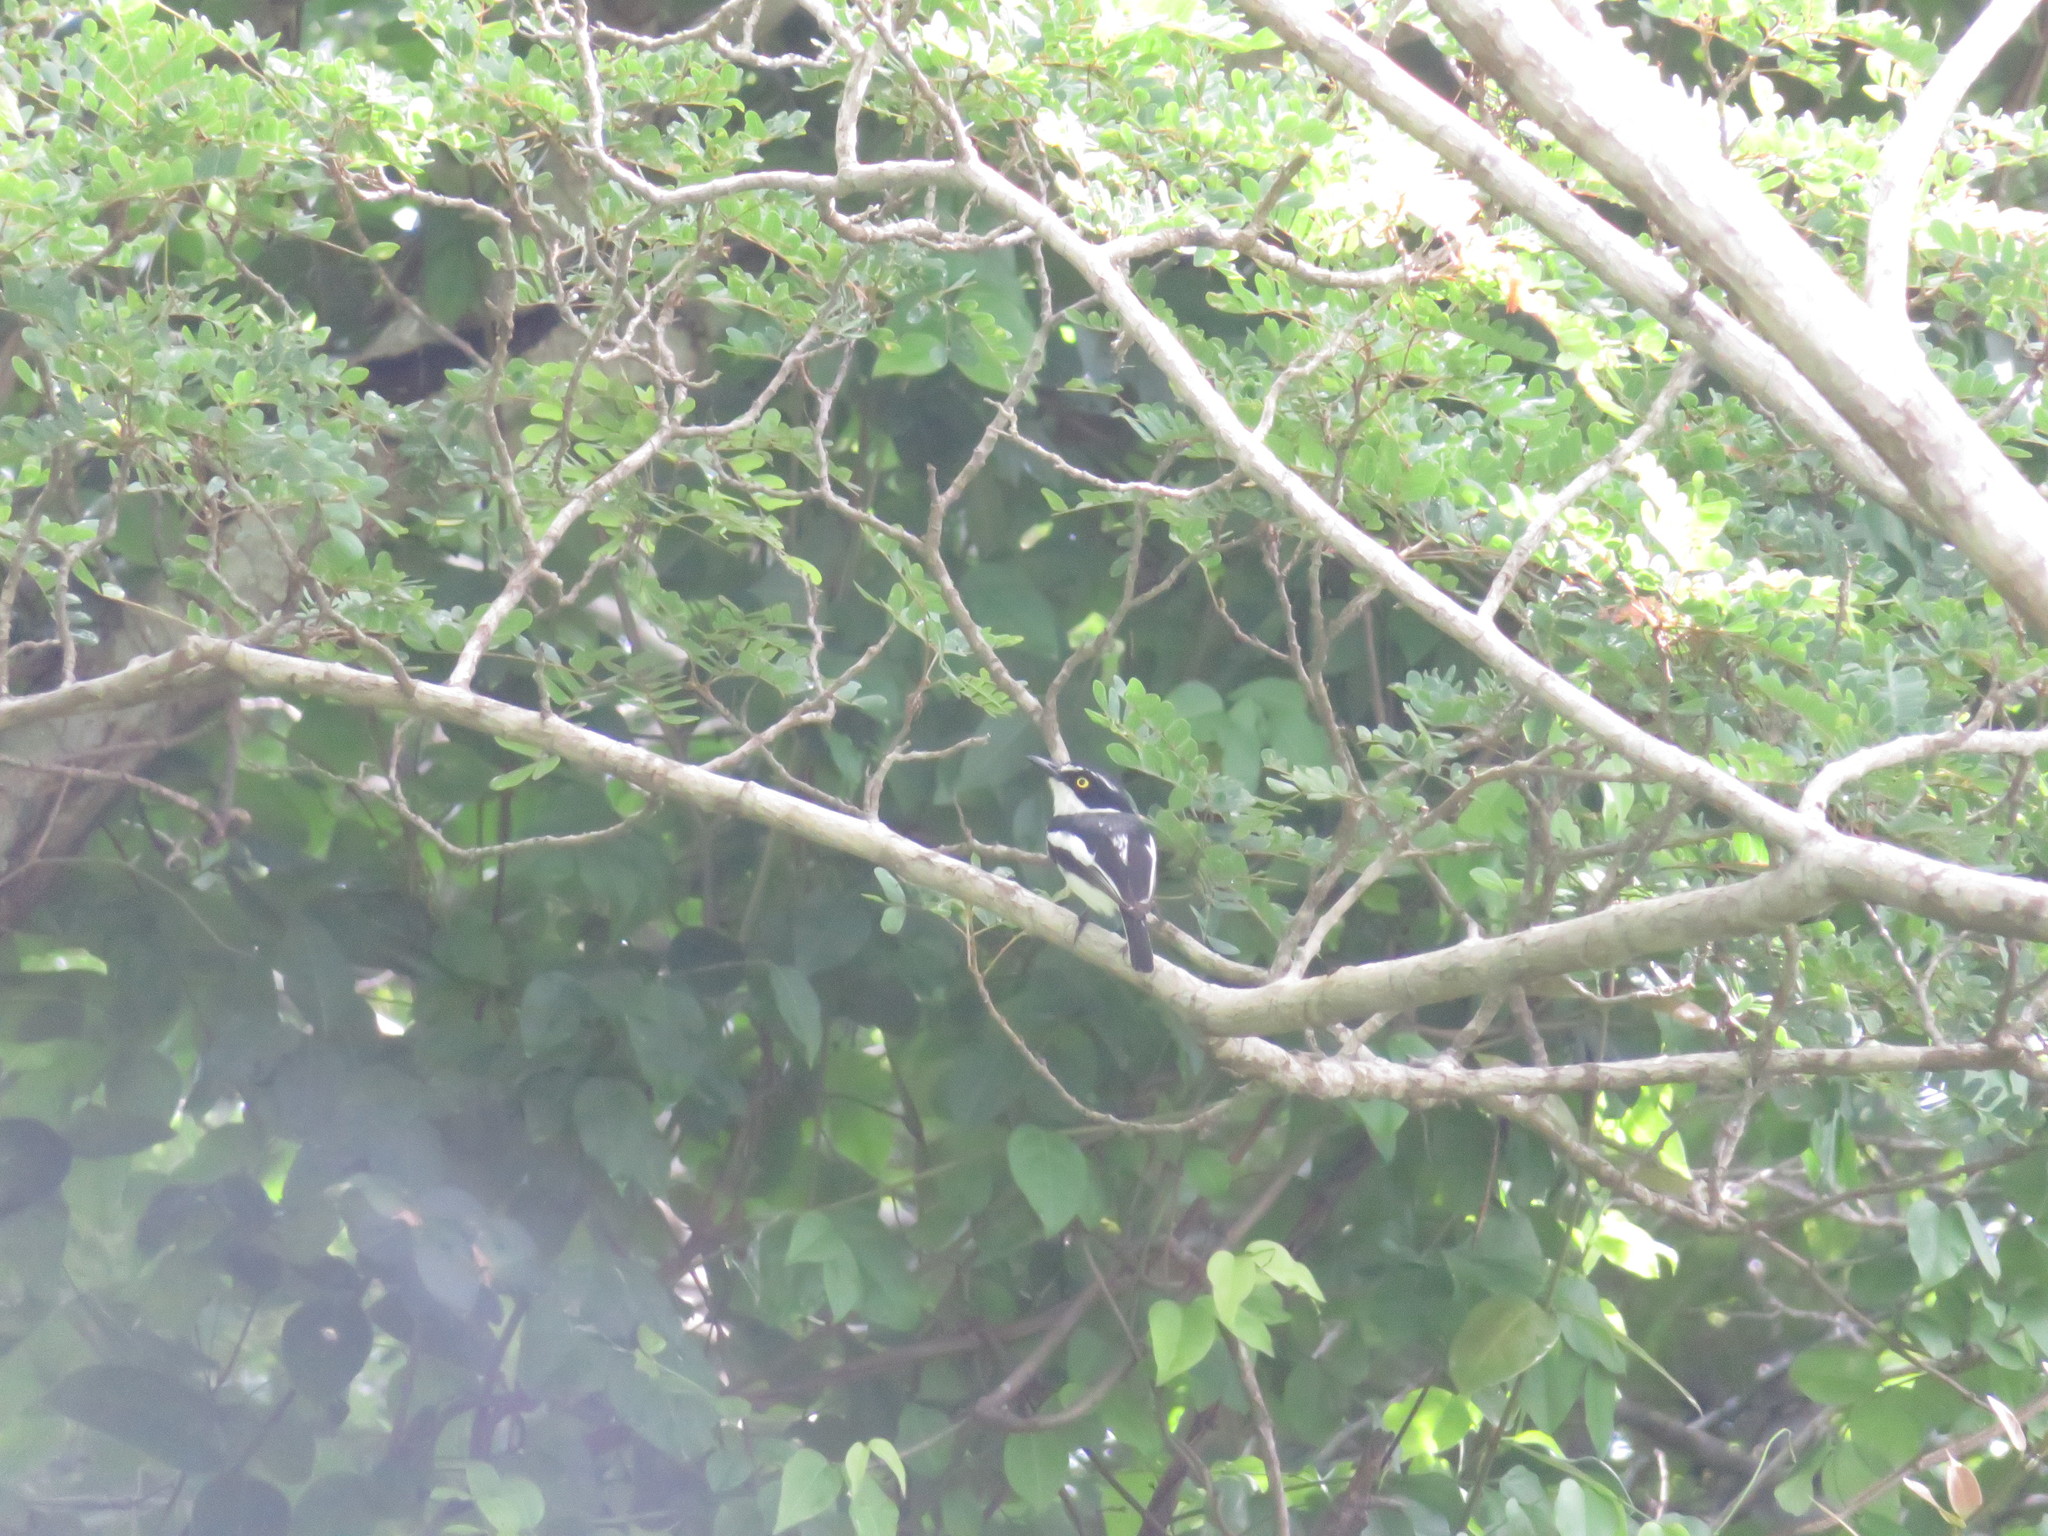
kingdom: Animalia
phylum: Chordata
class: Aves
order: Passeriformes
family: Platysteiridae
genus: Batis
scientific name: Batis minor
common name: Eastern black-headed batis
